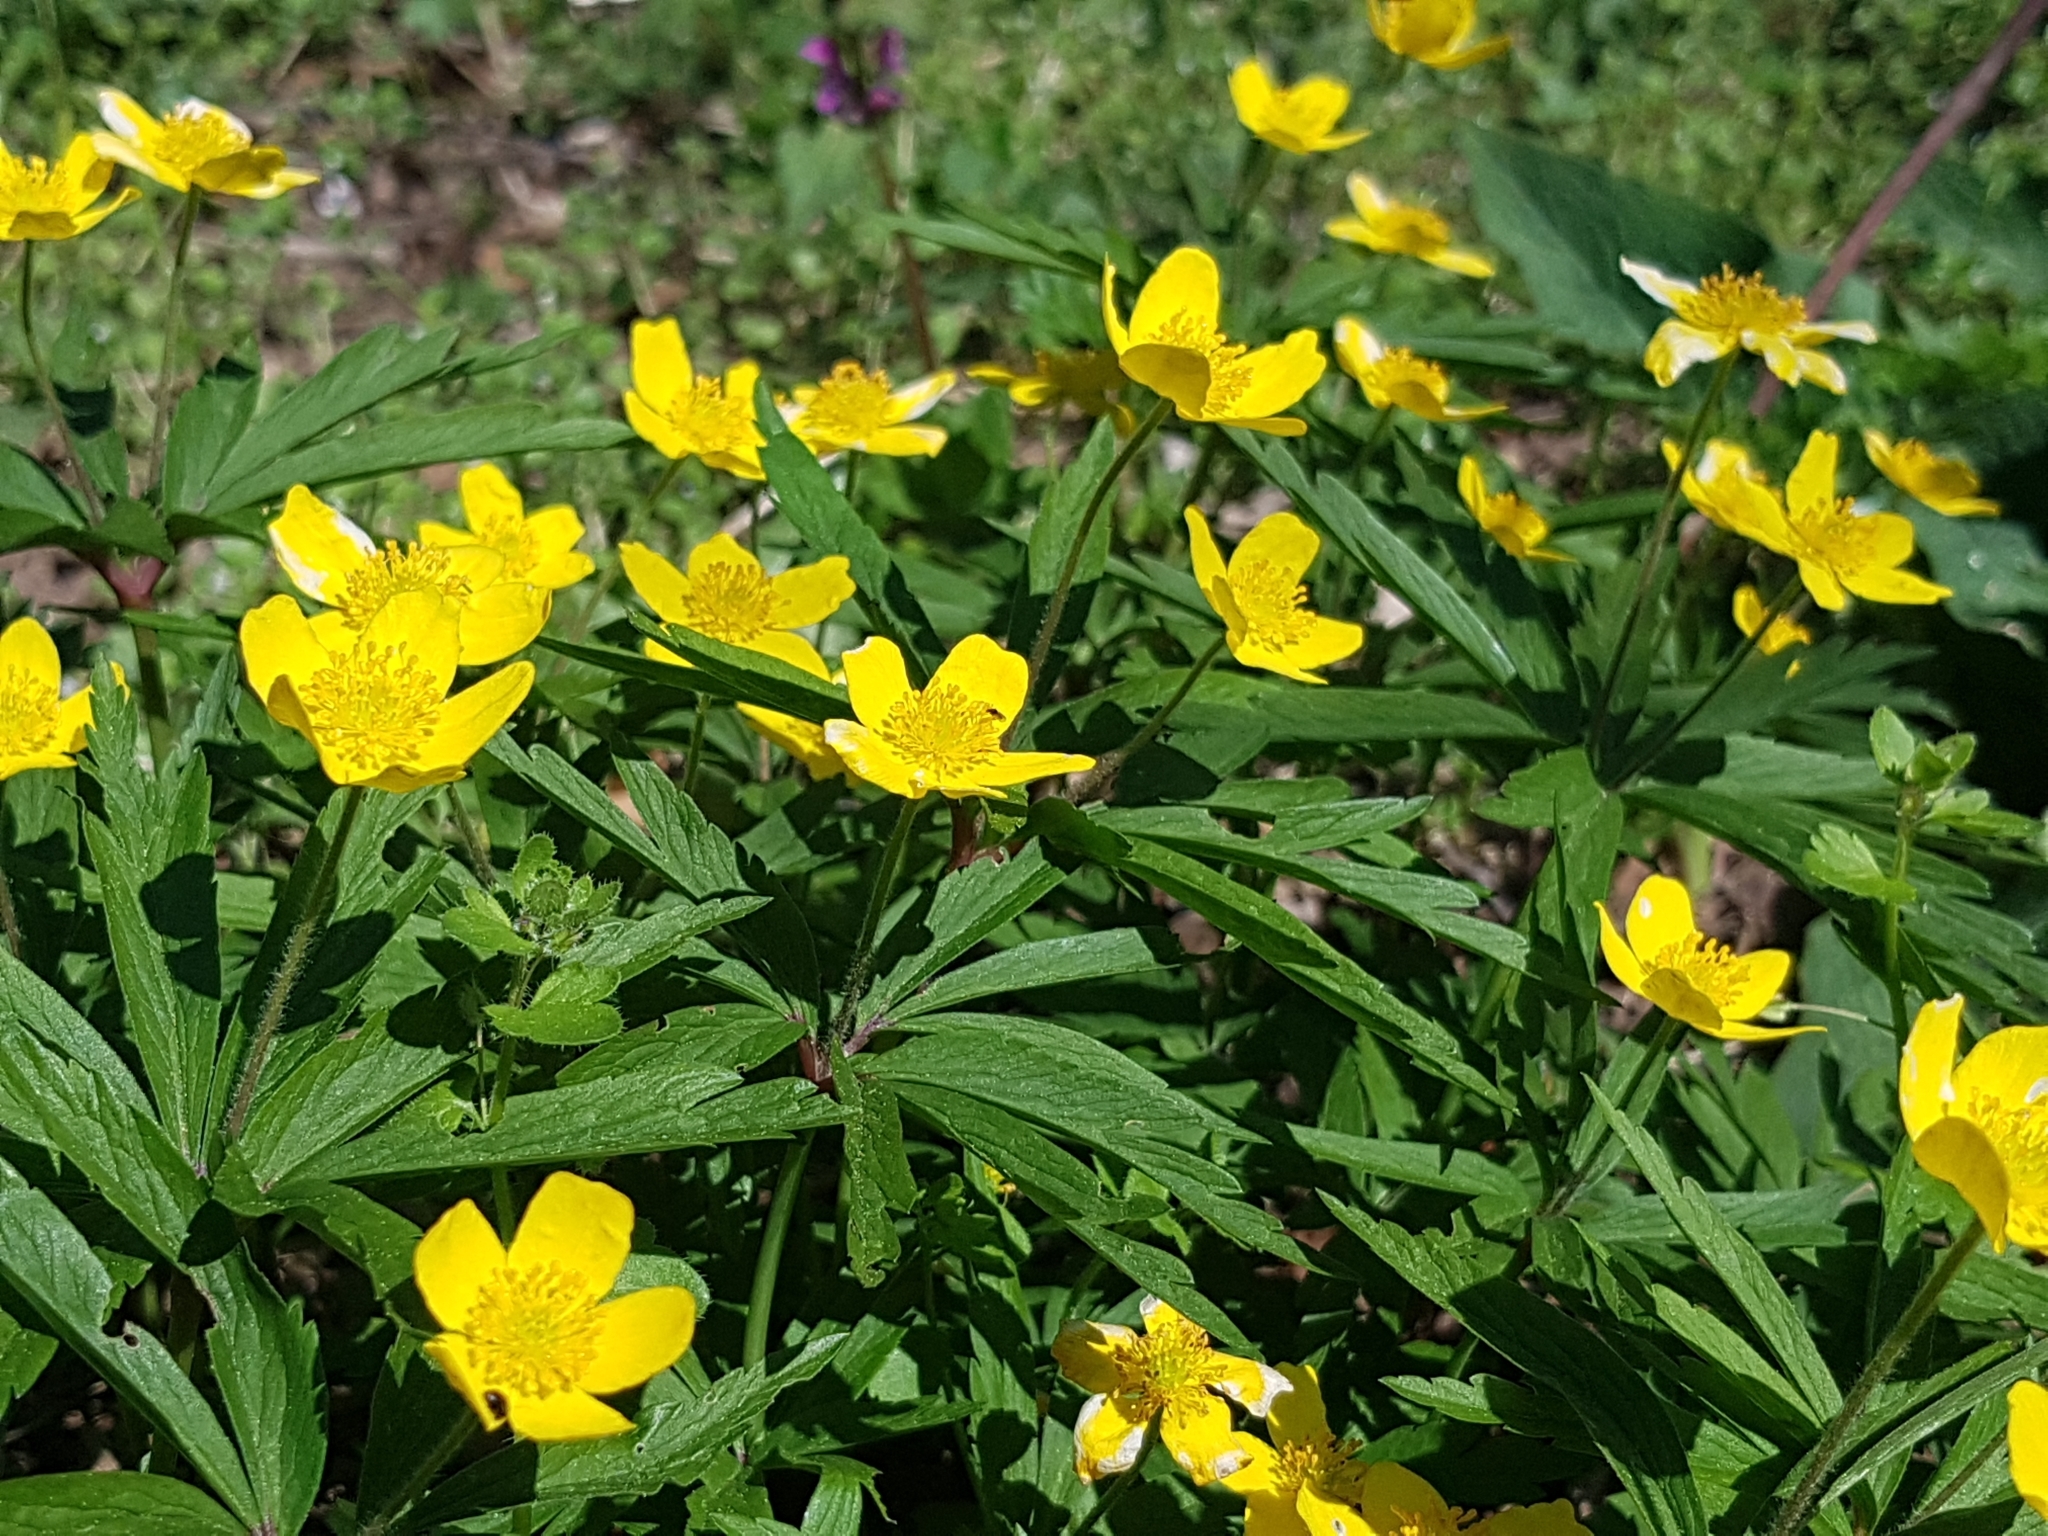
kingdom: Plantae
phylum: Tracheophyta
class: Magnoliopsida
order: Ranunculales
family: Ranunculaceae
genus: Anemone
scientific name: Anemone ranunculoides
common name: Yellow anemone
